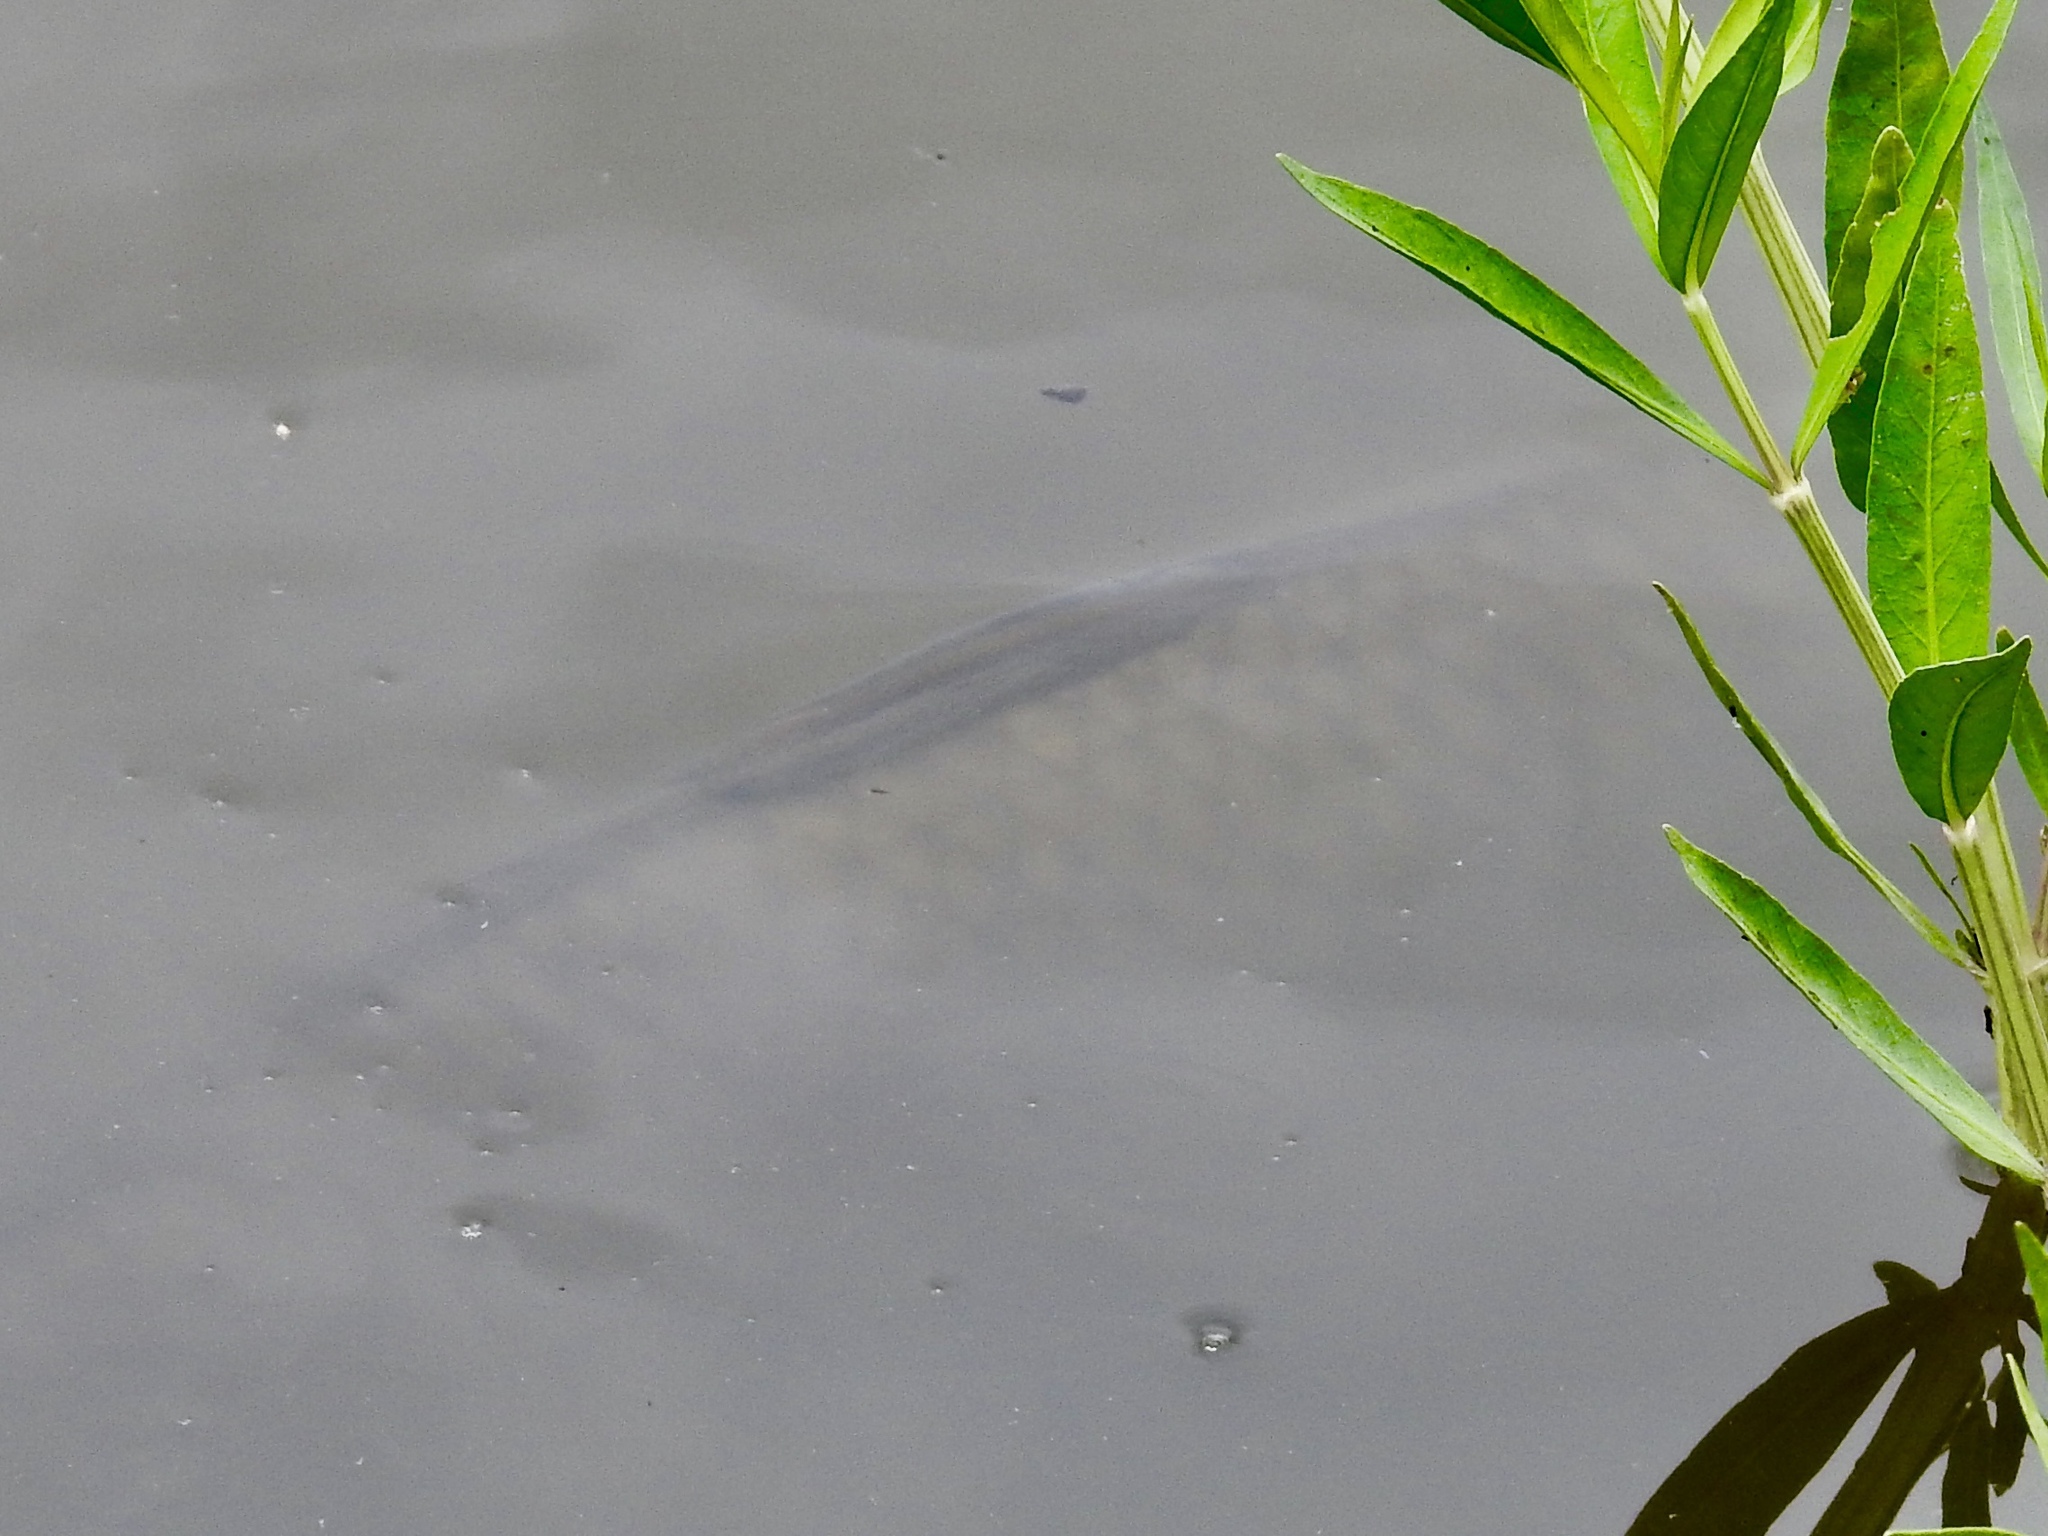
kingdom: Animalia
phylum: Chordata
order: Cypriniformes
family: Cyprinidae
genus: Cyprinus
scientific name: Cyprinus carpio
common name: Common carp
